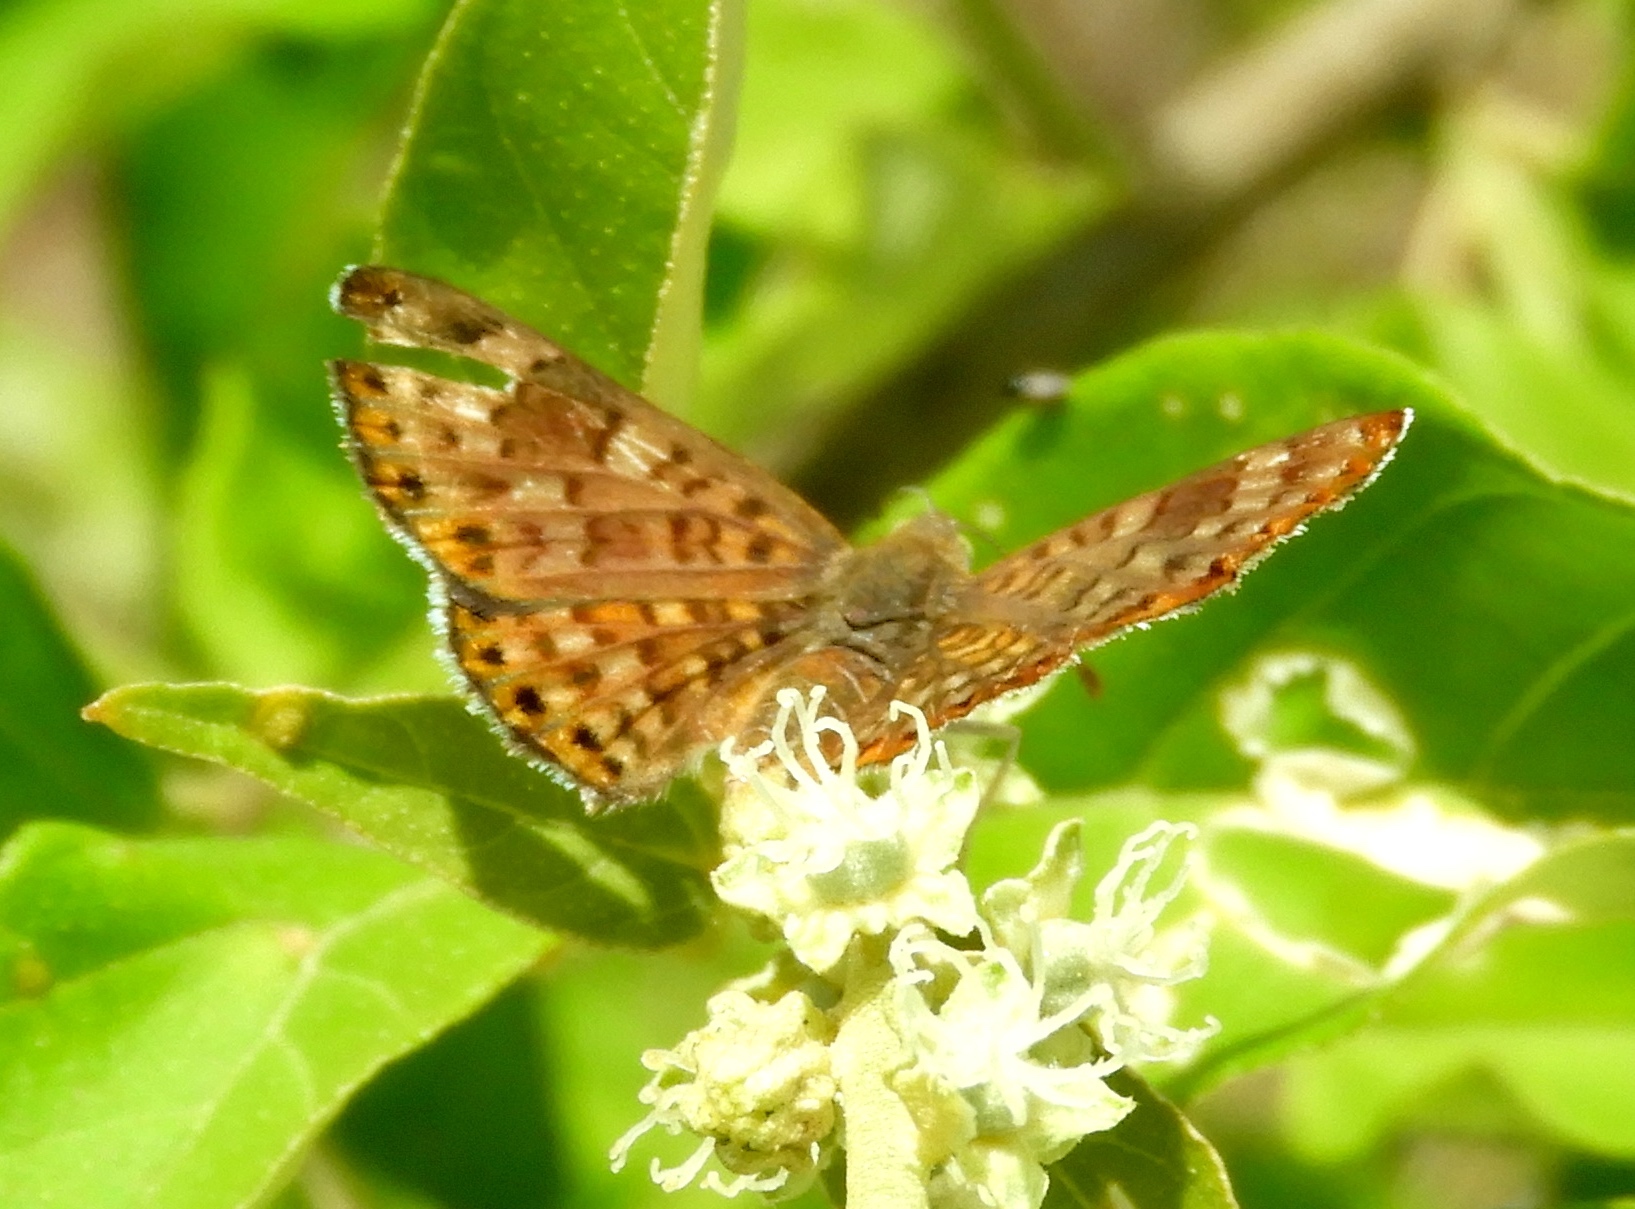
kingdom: Animalia
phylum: Arthropoda
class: Insecta
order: Lepidoptera
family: Riodinidae
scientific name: Riodinidae
